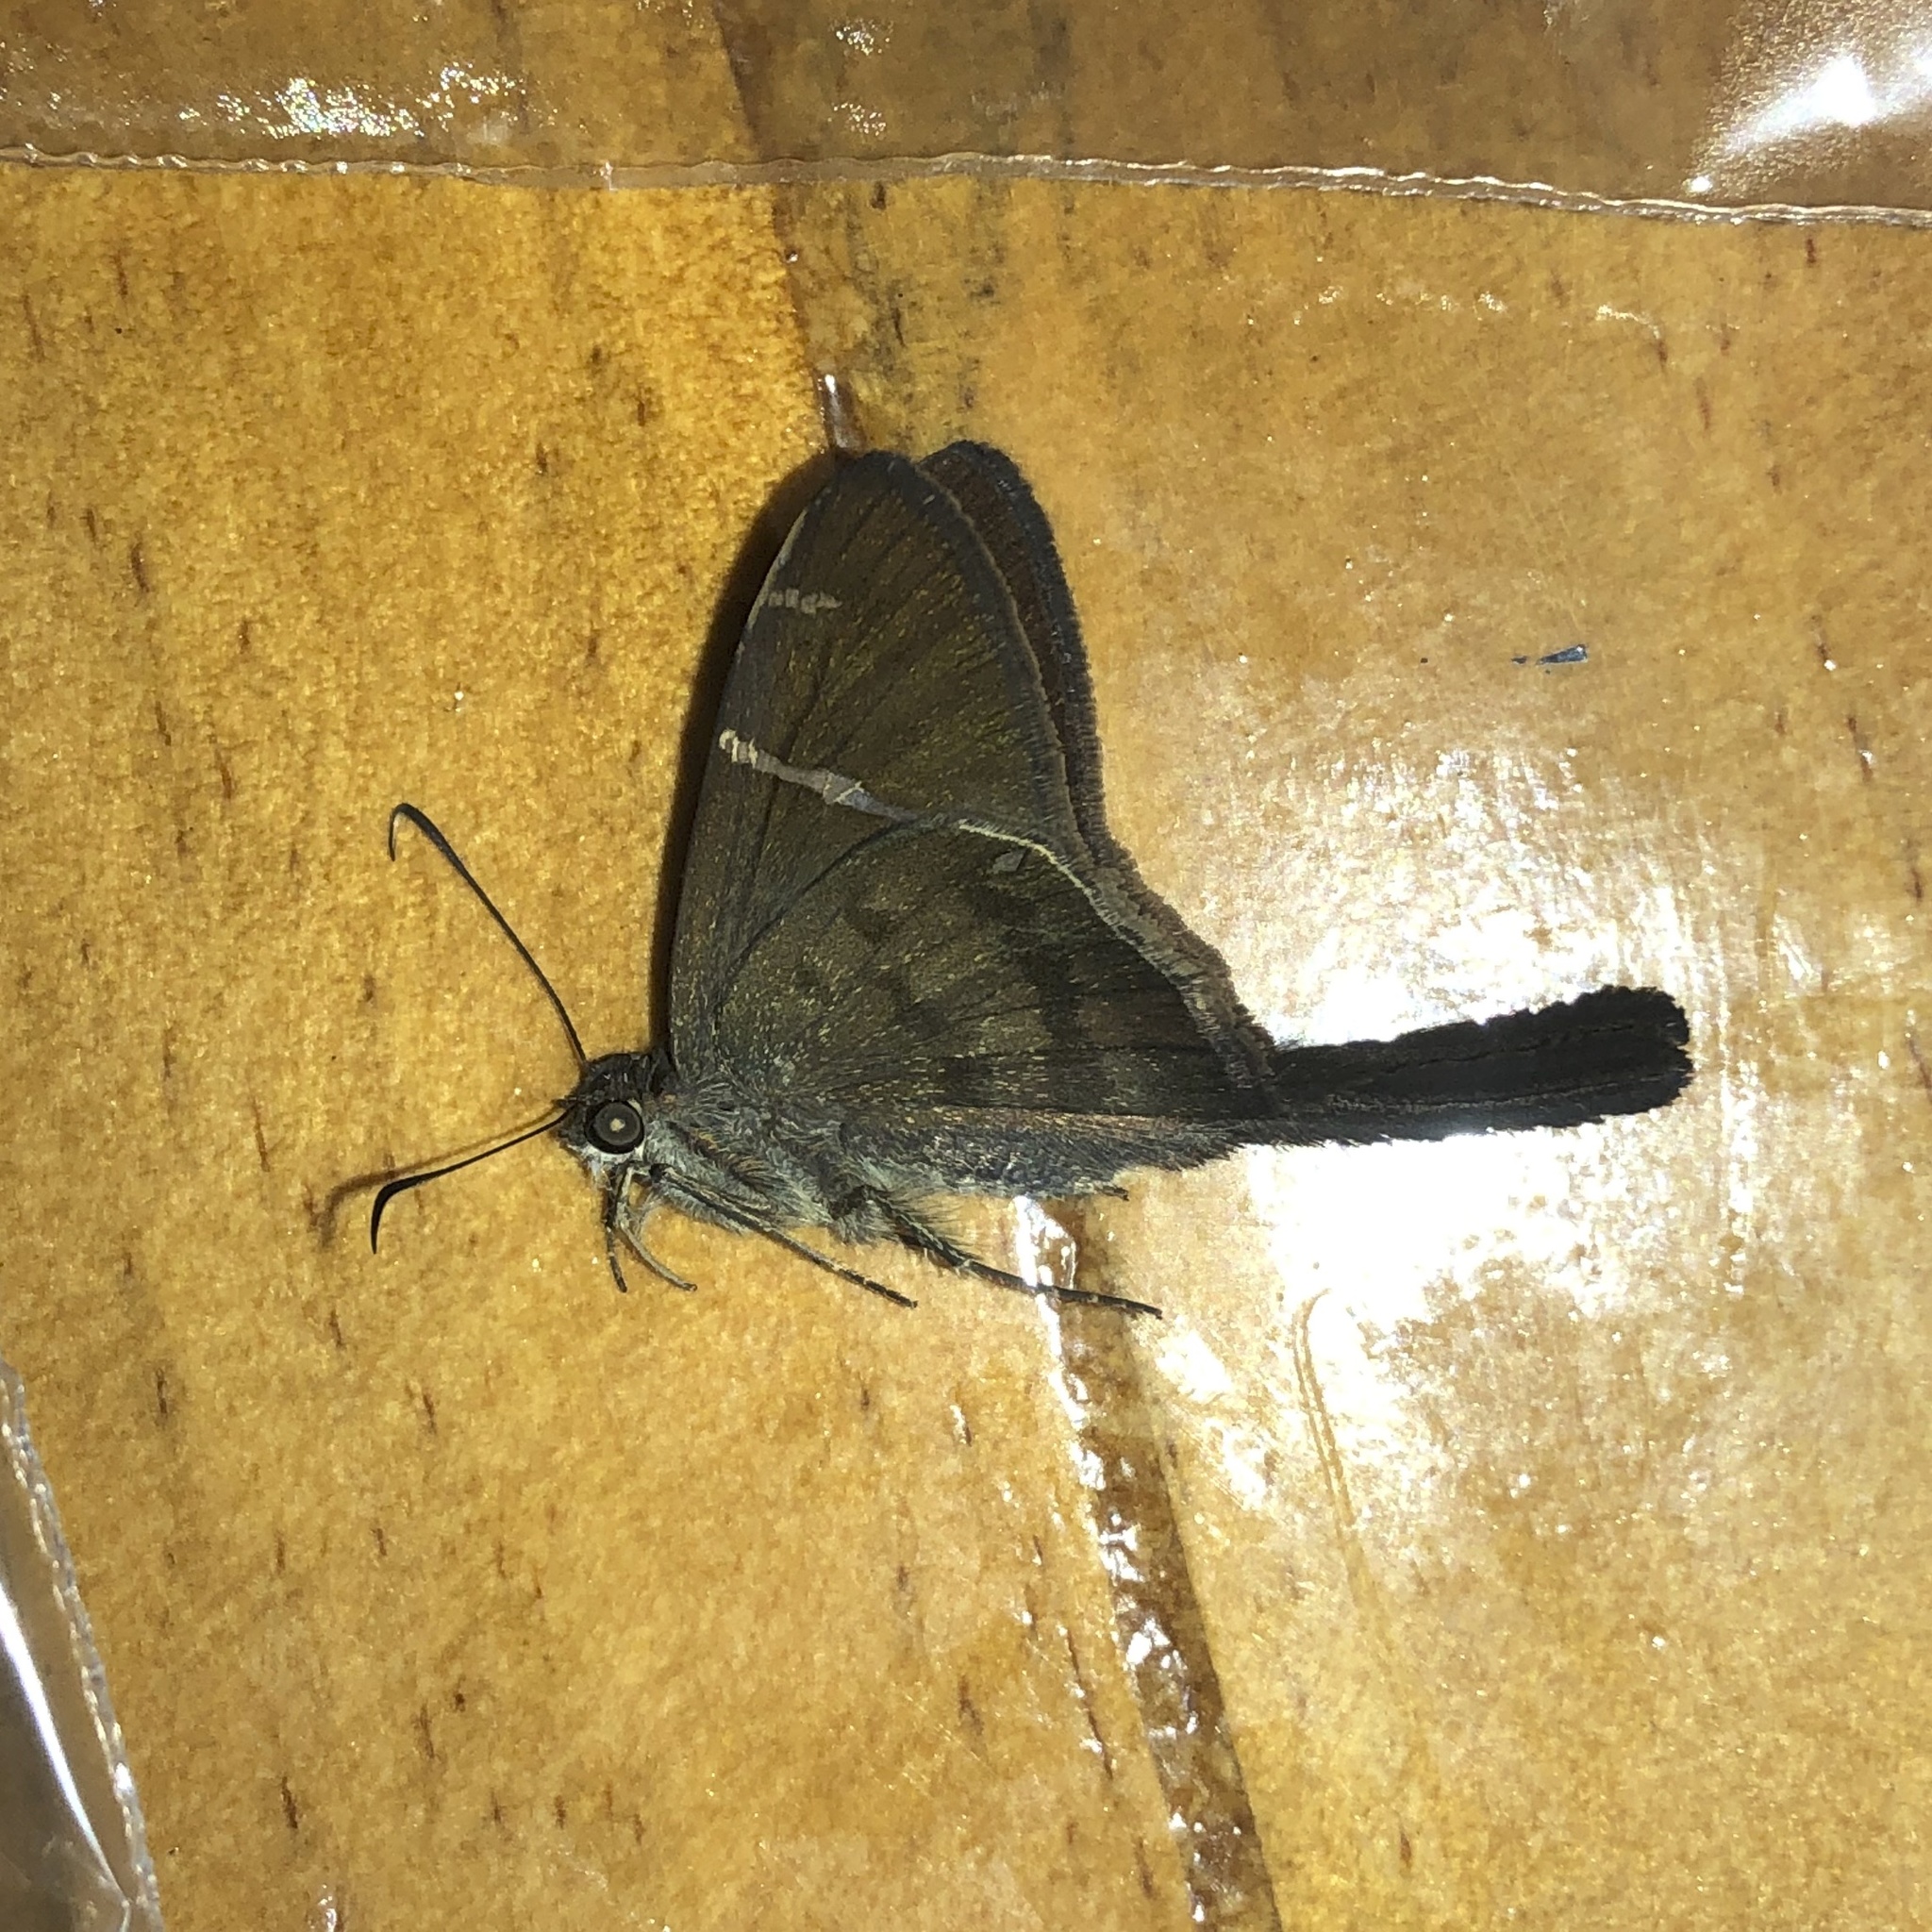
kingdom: Animalia
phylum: Arthropoda
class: Insecta
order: Lepidoptera
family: Hesperiidae
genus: Urbanus
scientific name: Urbanus teleus
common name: Teleus longtail
